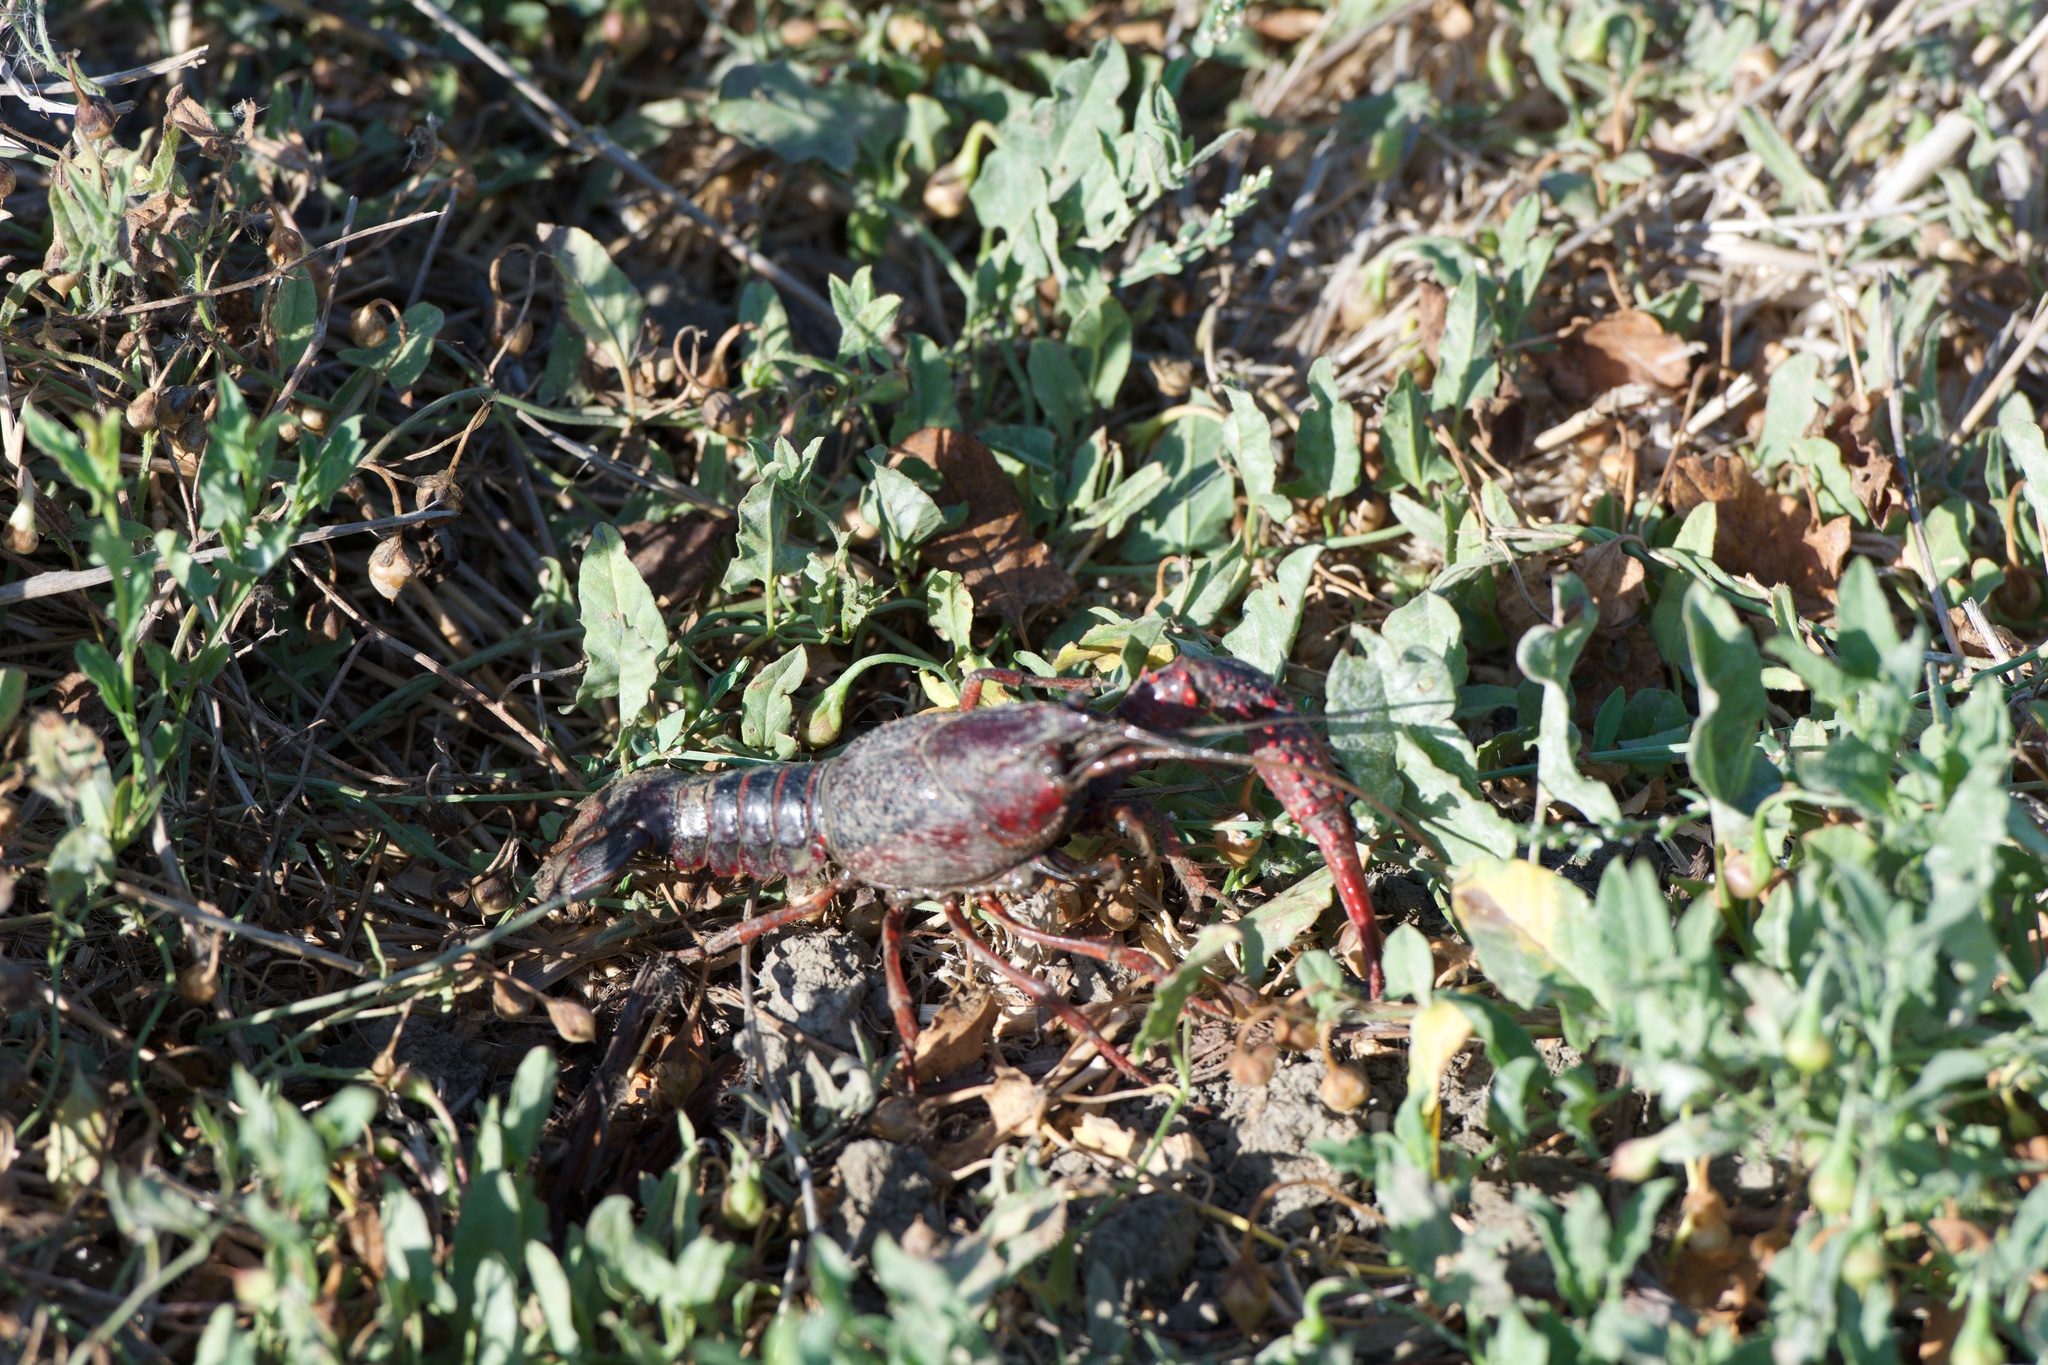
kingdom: Animalia
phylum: Arthropoda
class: Malacostraca
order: Decapoda
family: Cambaridae
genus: Procambarus
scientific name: Procambarus clarkii
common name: Red swamp crayfish
